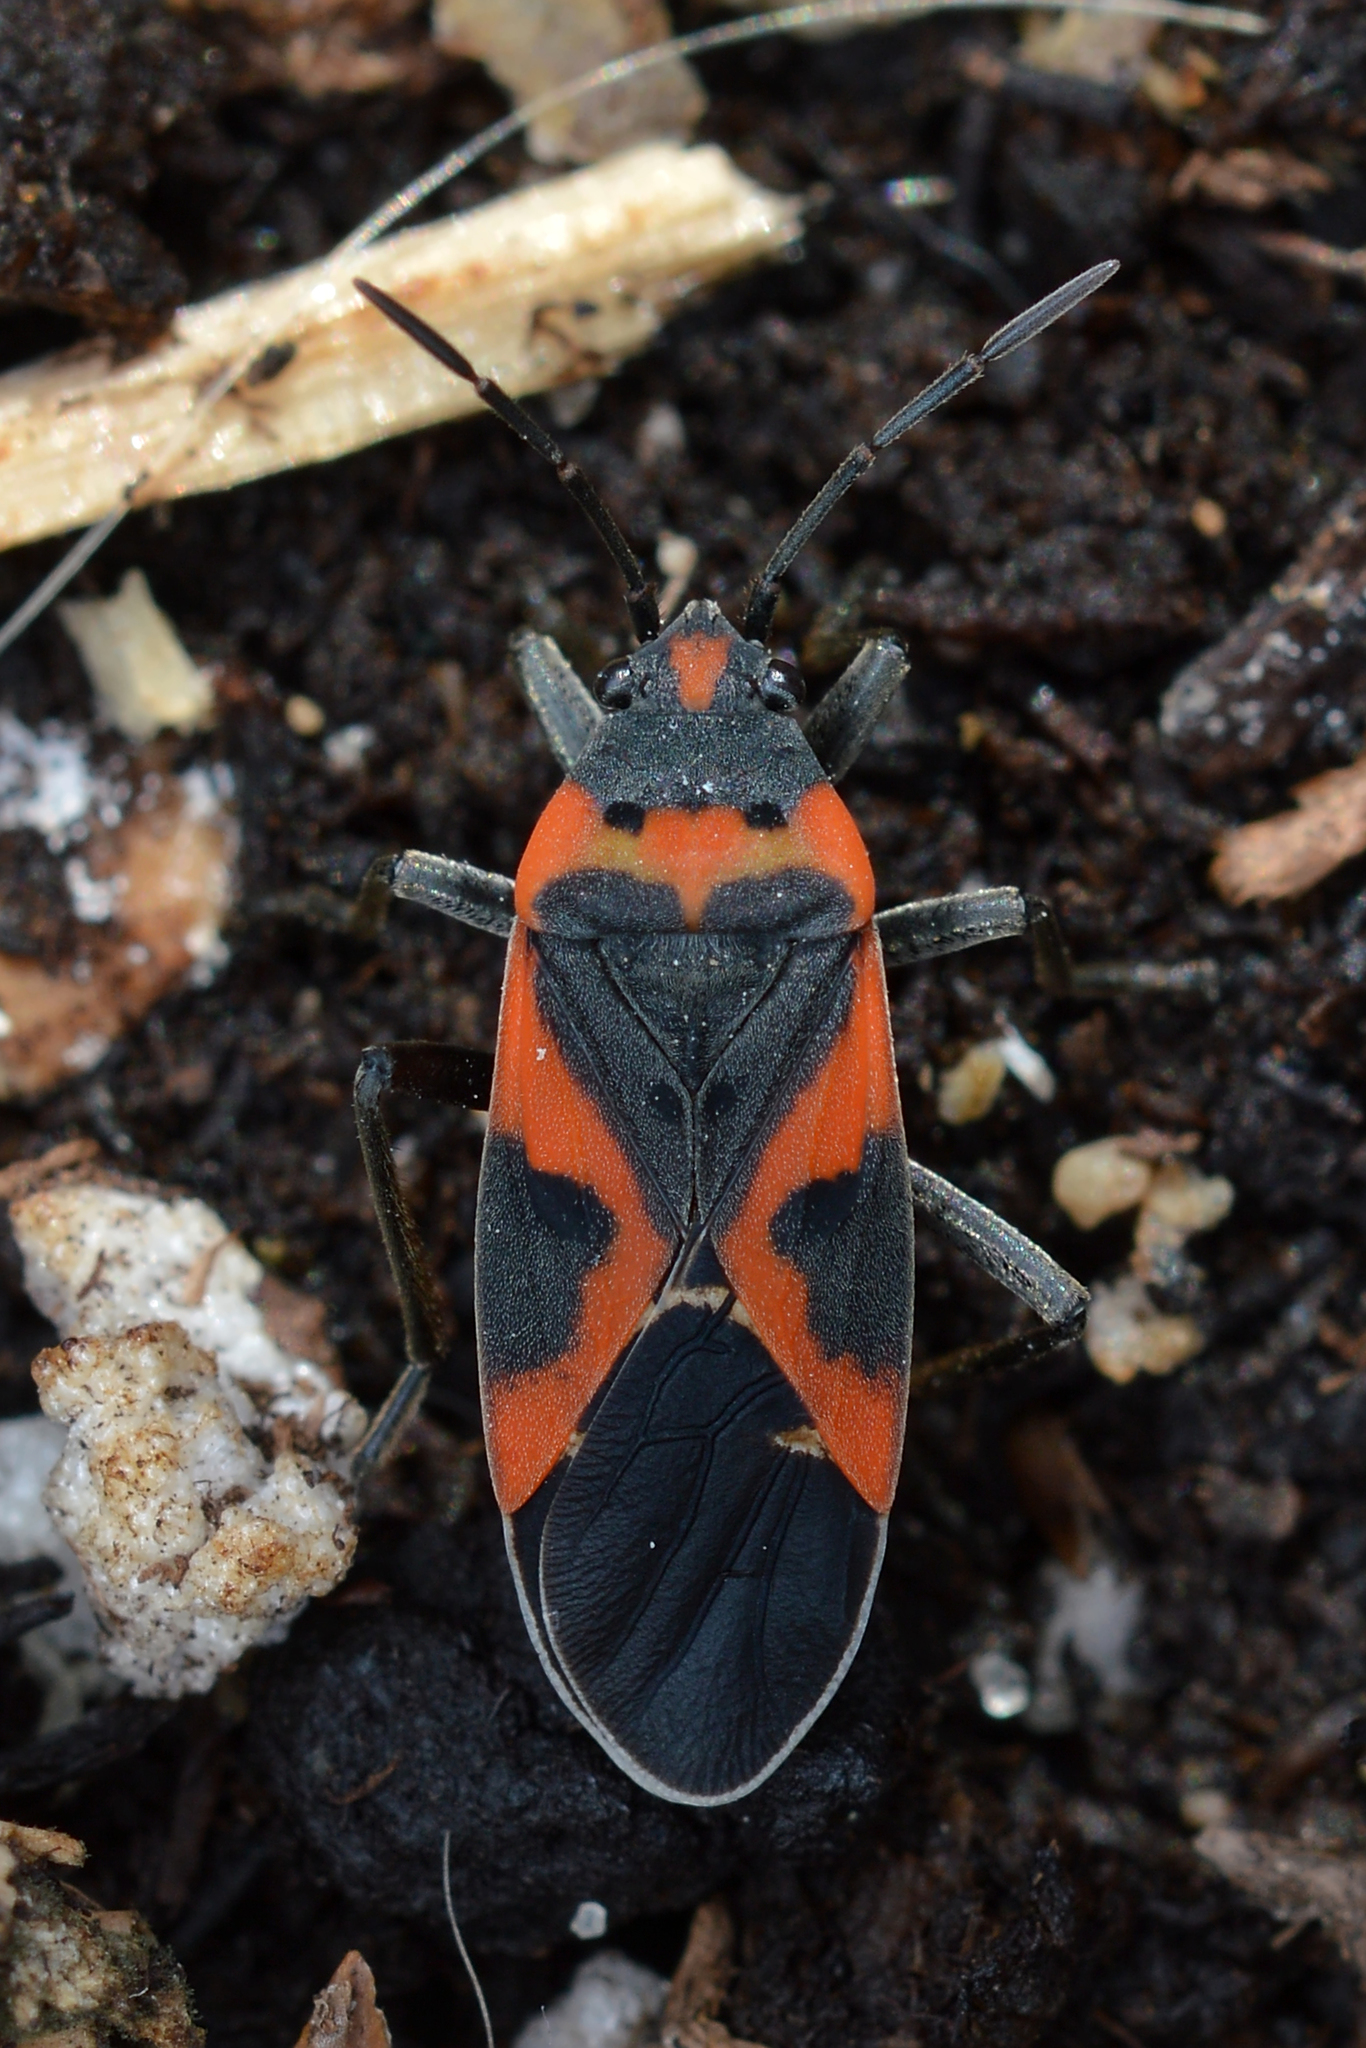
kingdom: Animalia
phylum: Arthropoda
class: Insecta
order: Hemiptera
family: Lygaeidae
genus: Lygaeus
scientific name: Lygaeus kalmii
